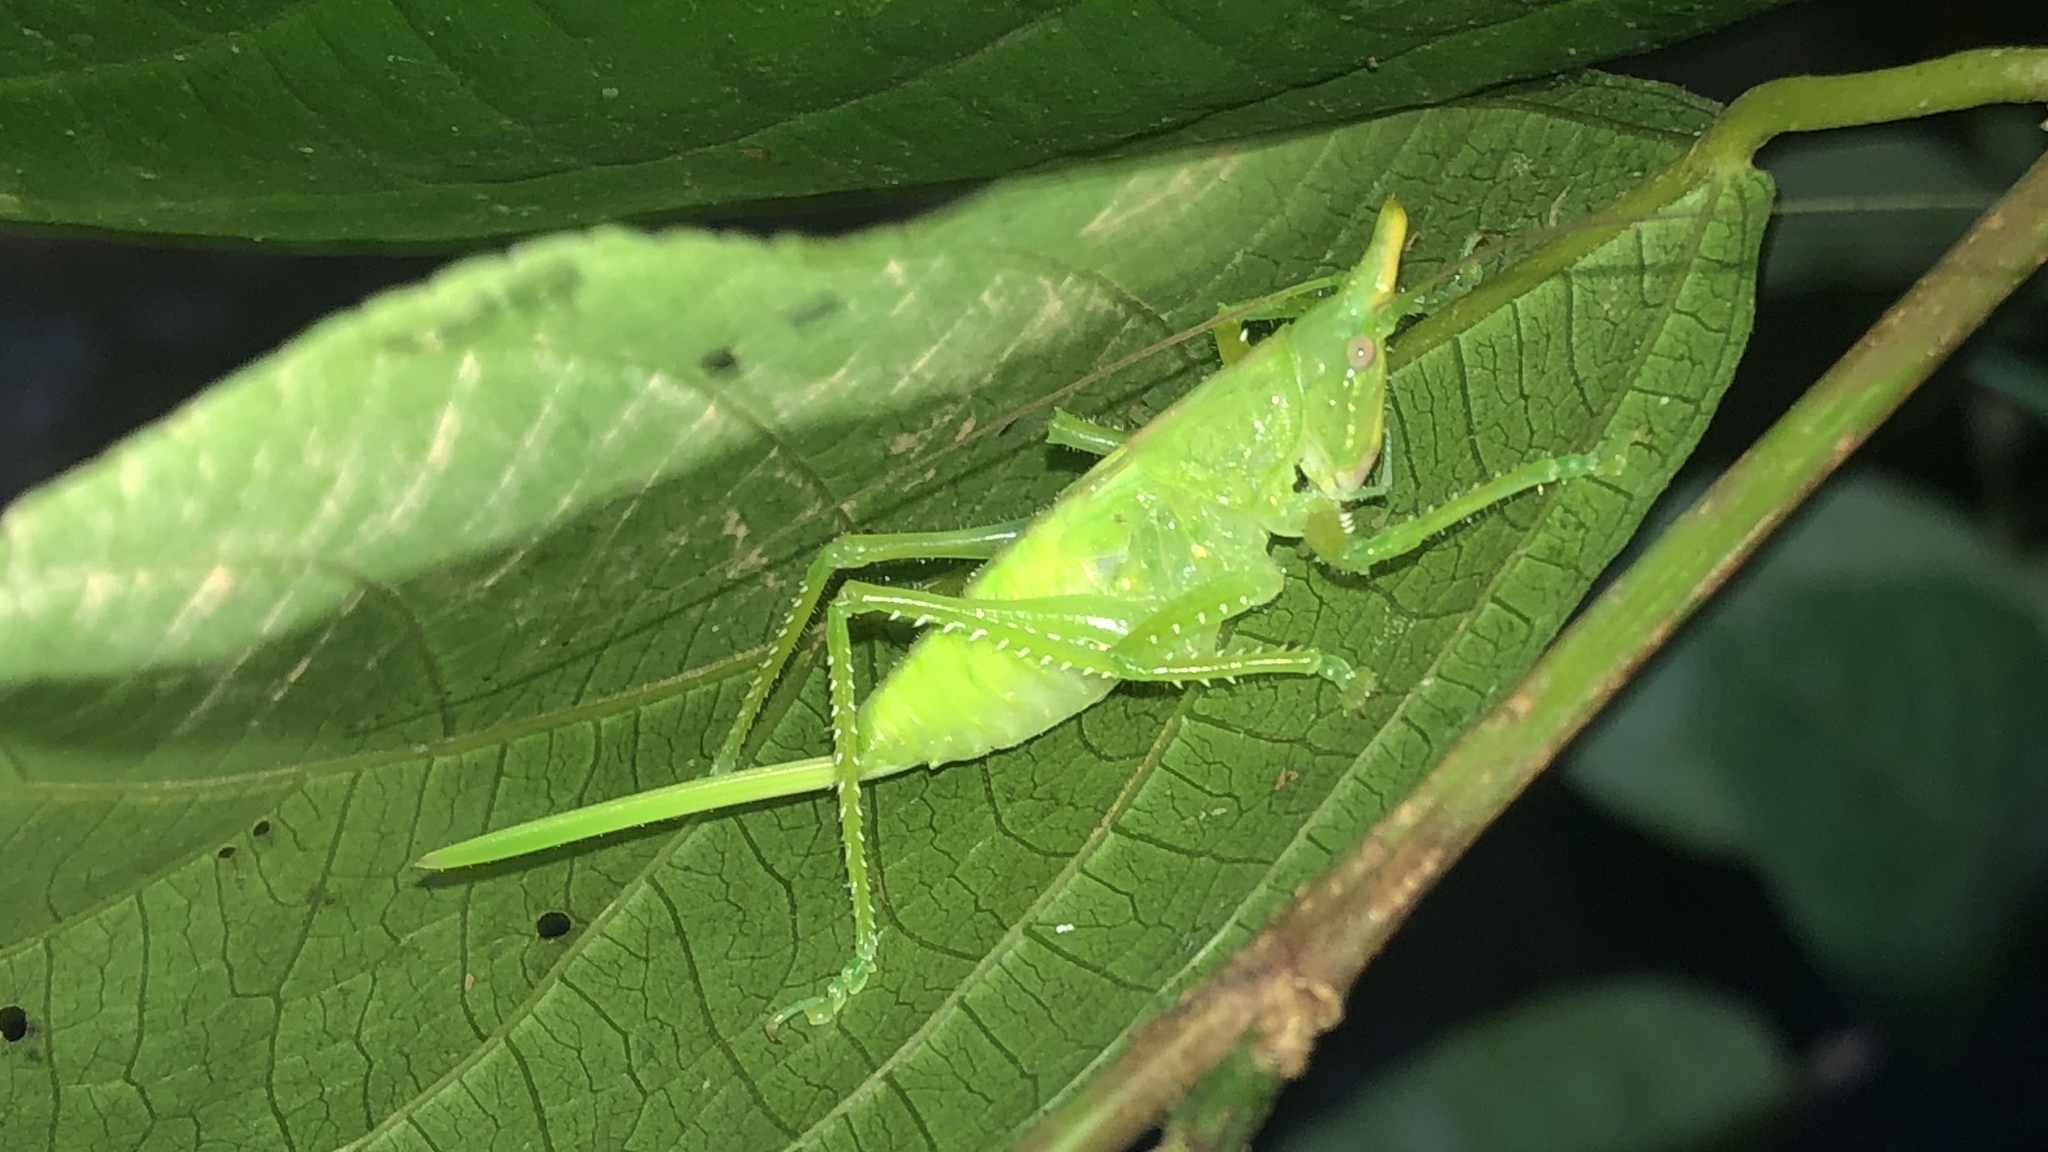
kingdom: Animalia
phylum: Arthropoda
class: Insecta
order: Orthoptera
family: Tettigoniidae
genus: Copiphora
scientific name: Copiphora cultricornis
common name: Yellow-faced spear bearer
